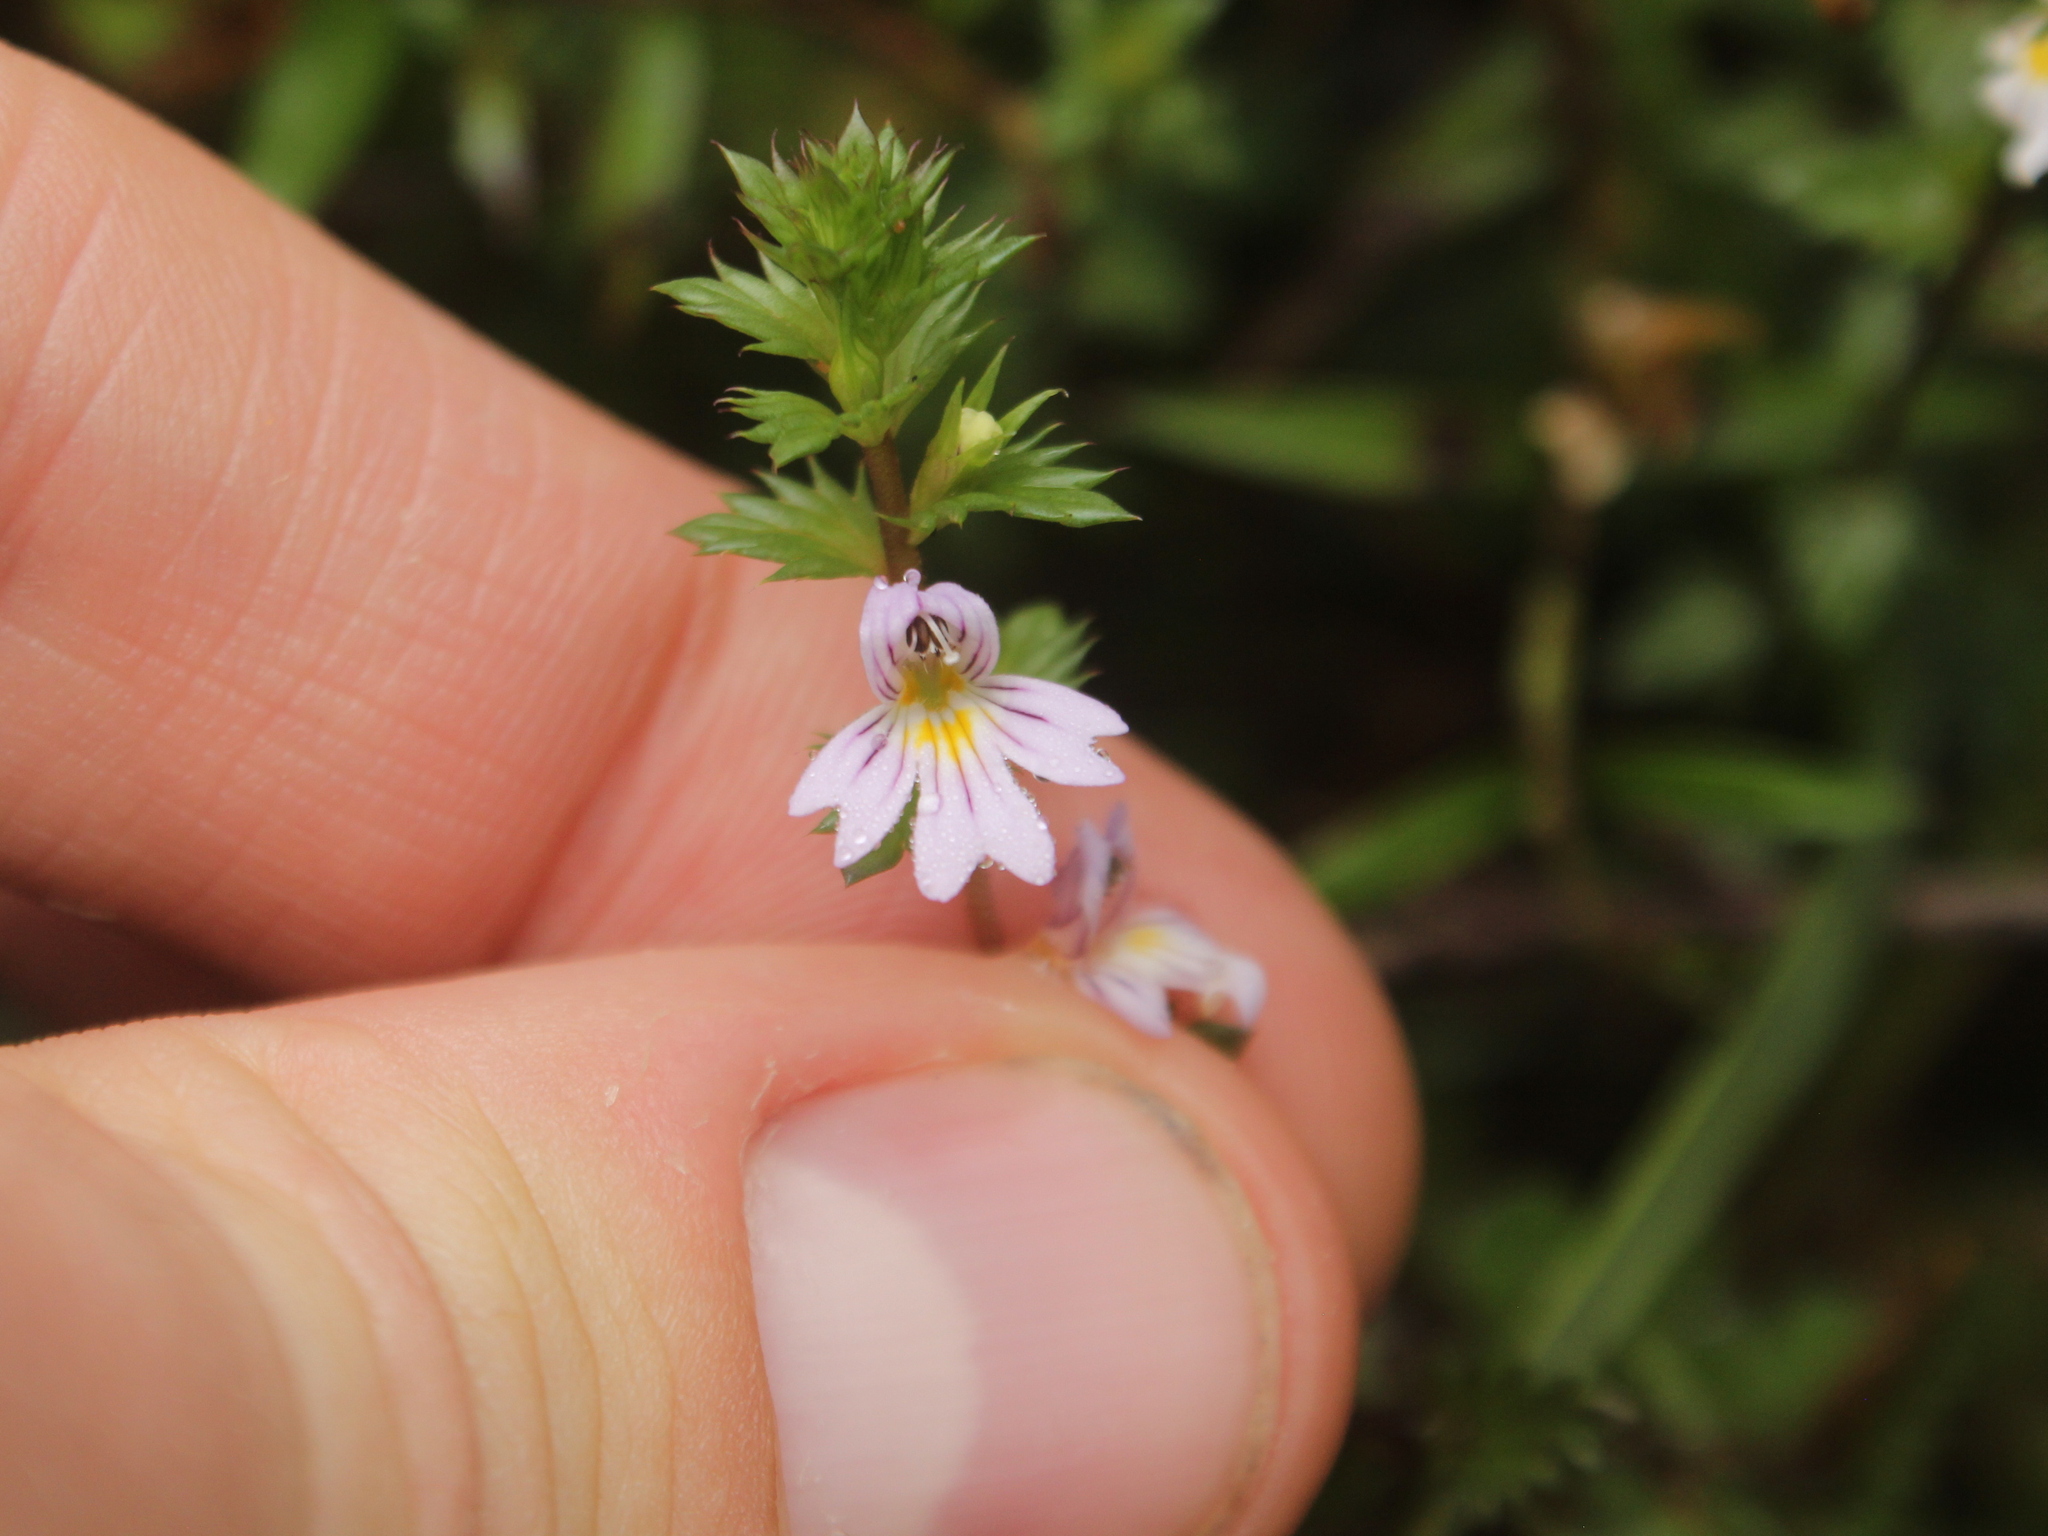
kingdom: Plantae
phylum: Tracheophyta
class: Magnoliopsida
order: Lamiales
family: Orobanchaceae
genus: Euphrasia
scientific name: Euphrasia nemorosa
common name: Common eyebright
